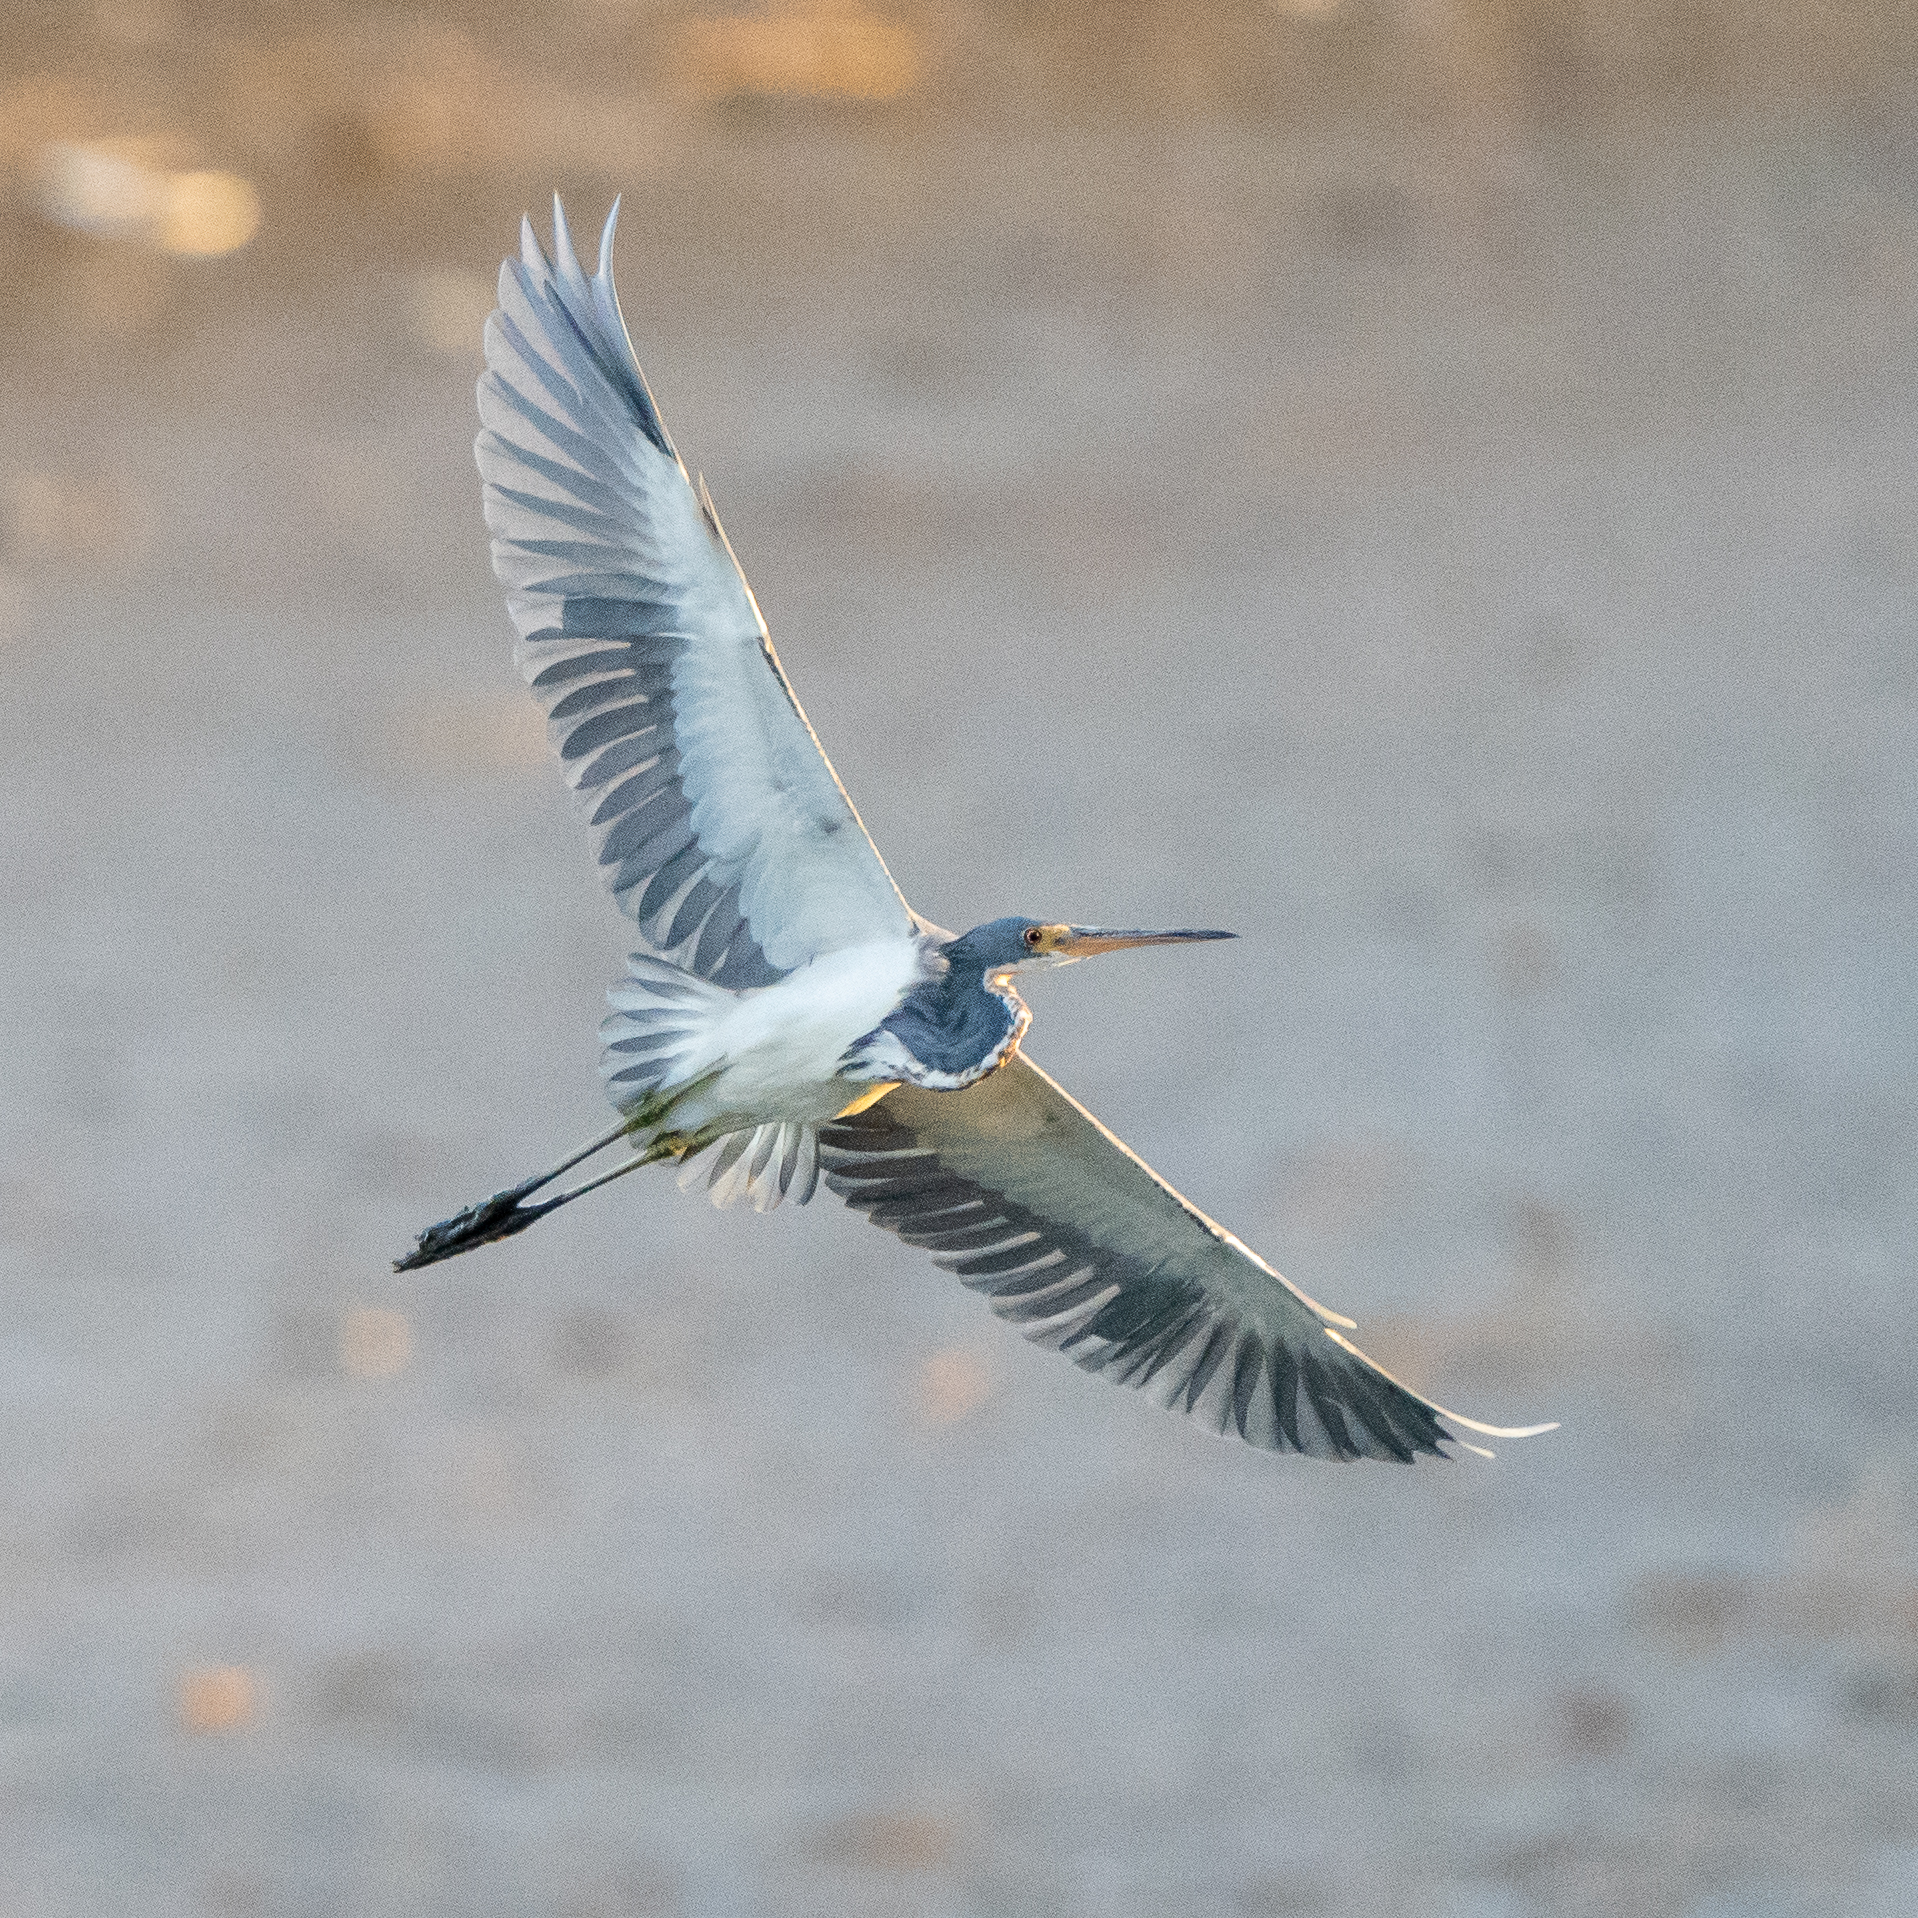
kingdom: Animalia
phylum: Chordata
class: Aves
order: Pelecaniformes
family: Ardeidae
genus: Egretta
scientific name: Egretta tricolor
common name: Tricolored heron
